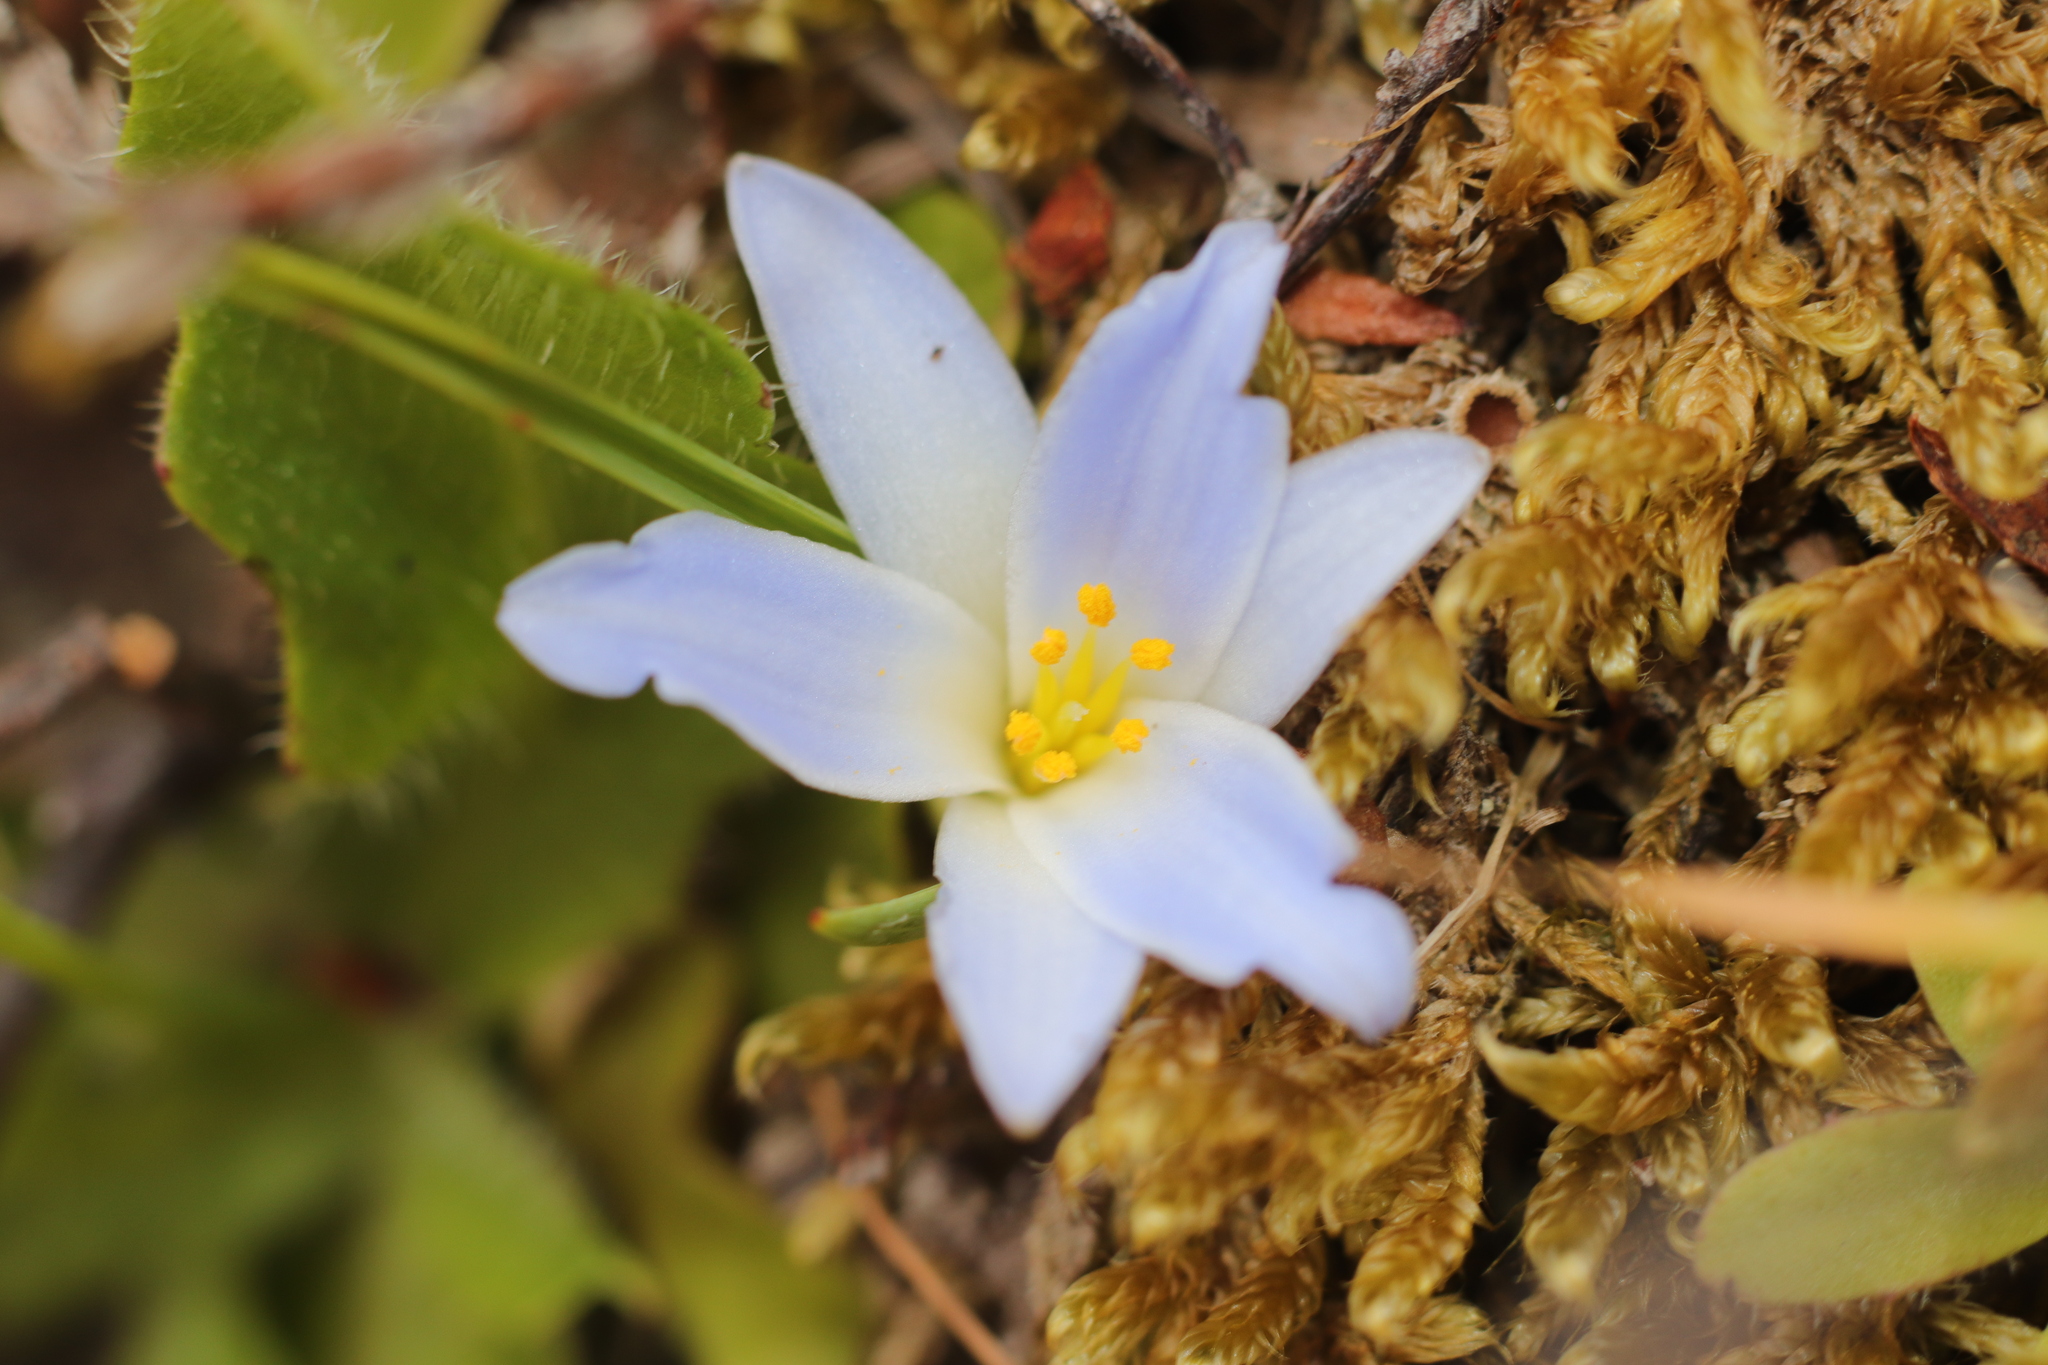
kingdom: Plantae
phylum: Tracheophyta
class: Liliopsida
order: Asparagales
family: Asphodelaceae
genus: Herpolirion
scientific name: Herpolirion novae-zelandiae
